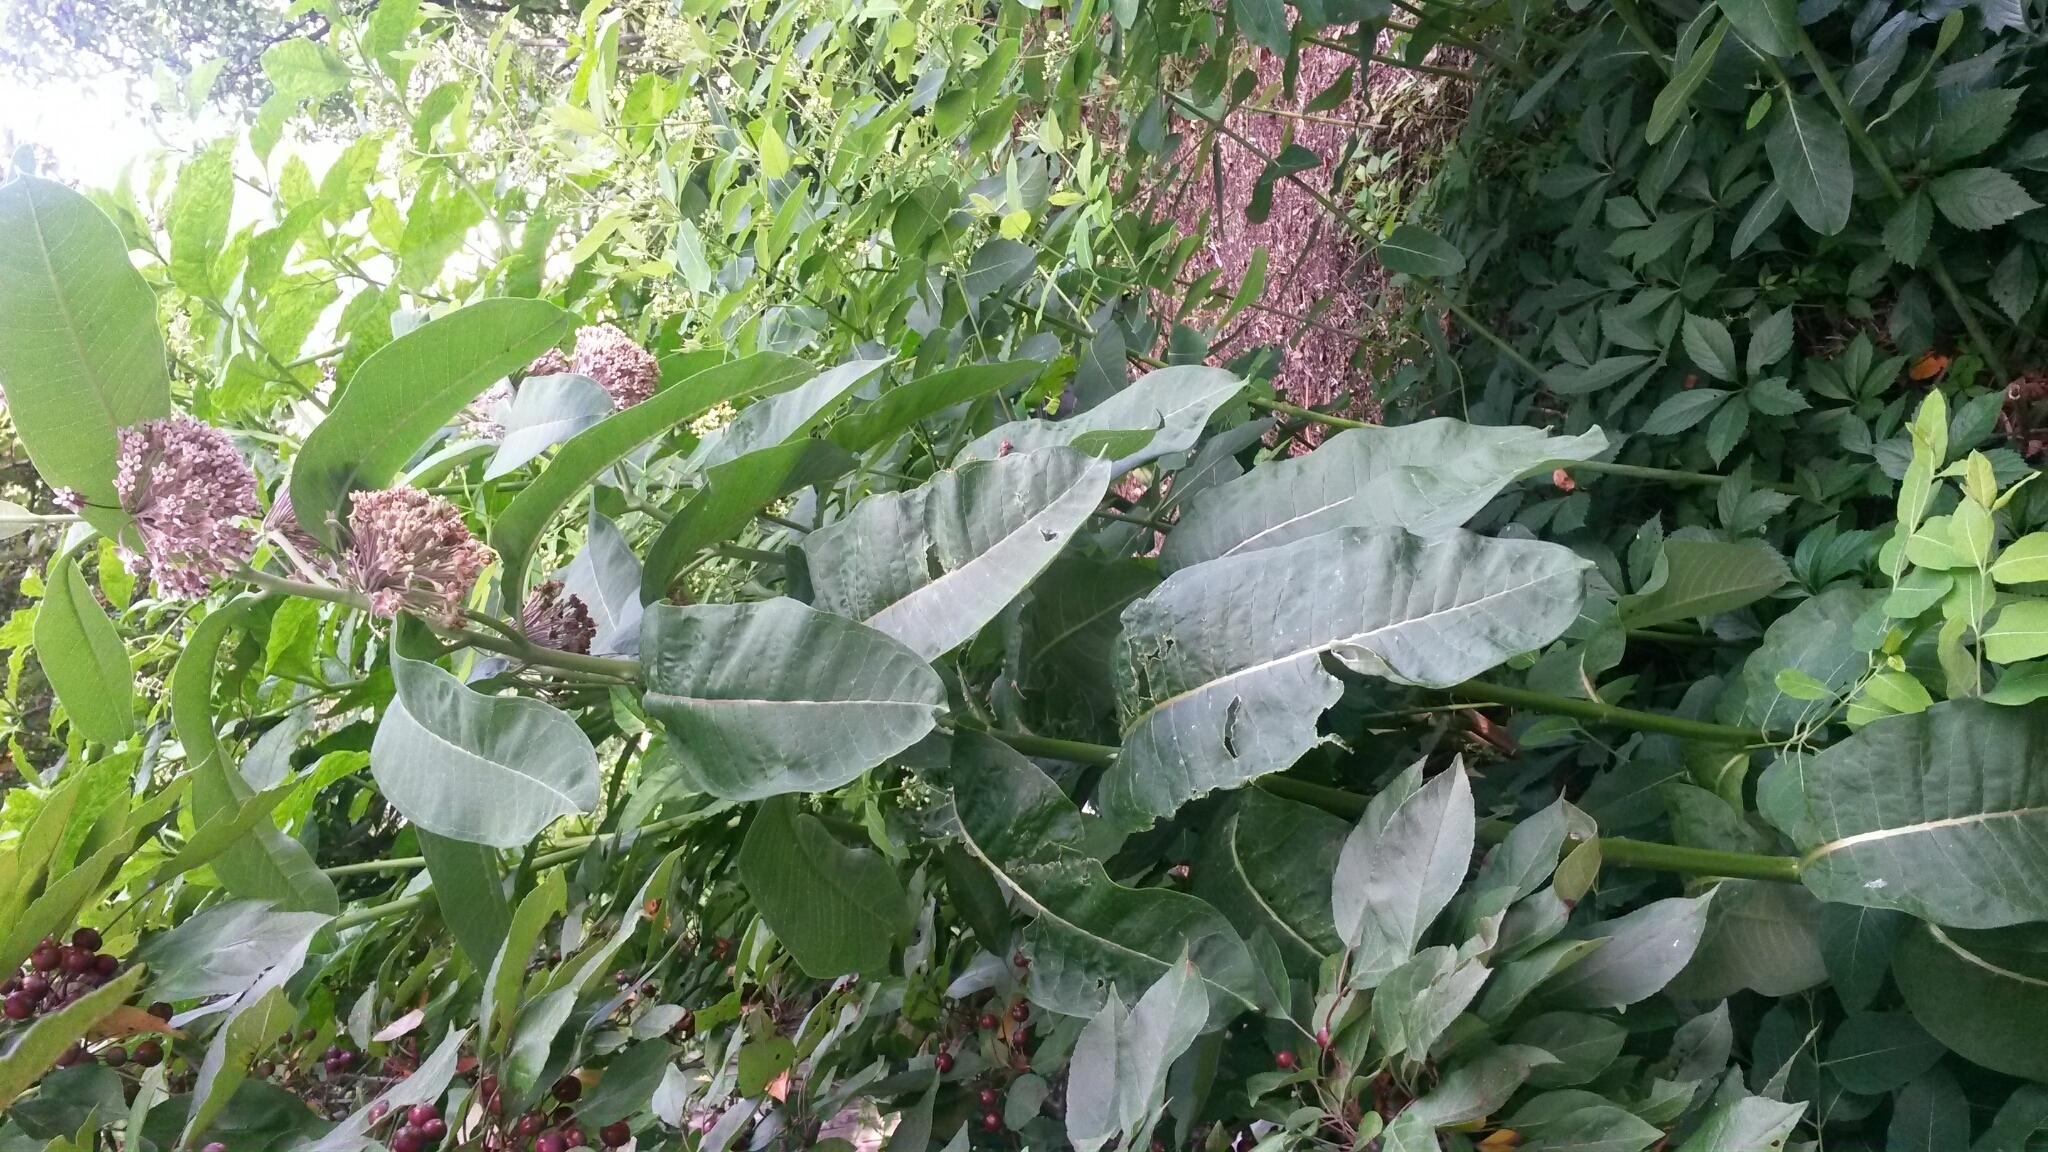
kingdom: Plantae
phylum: Tracheophyta
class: Magnoliopsida
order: Gentianales
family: Apocynaceae
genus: Asclepias
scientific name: Asclepias syriaca
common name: Common milkweed
